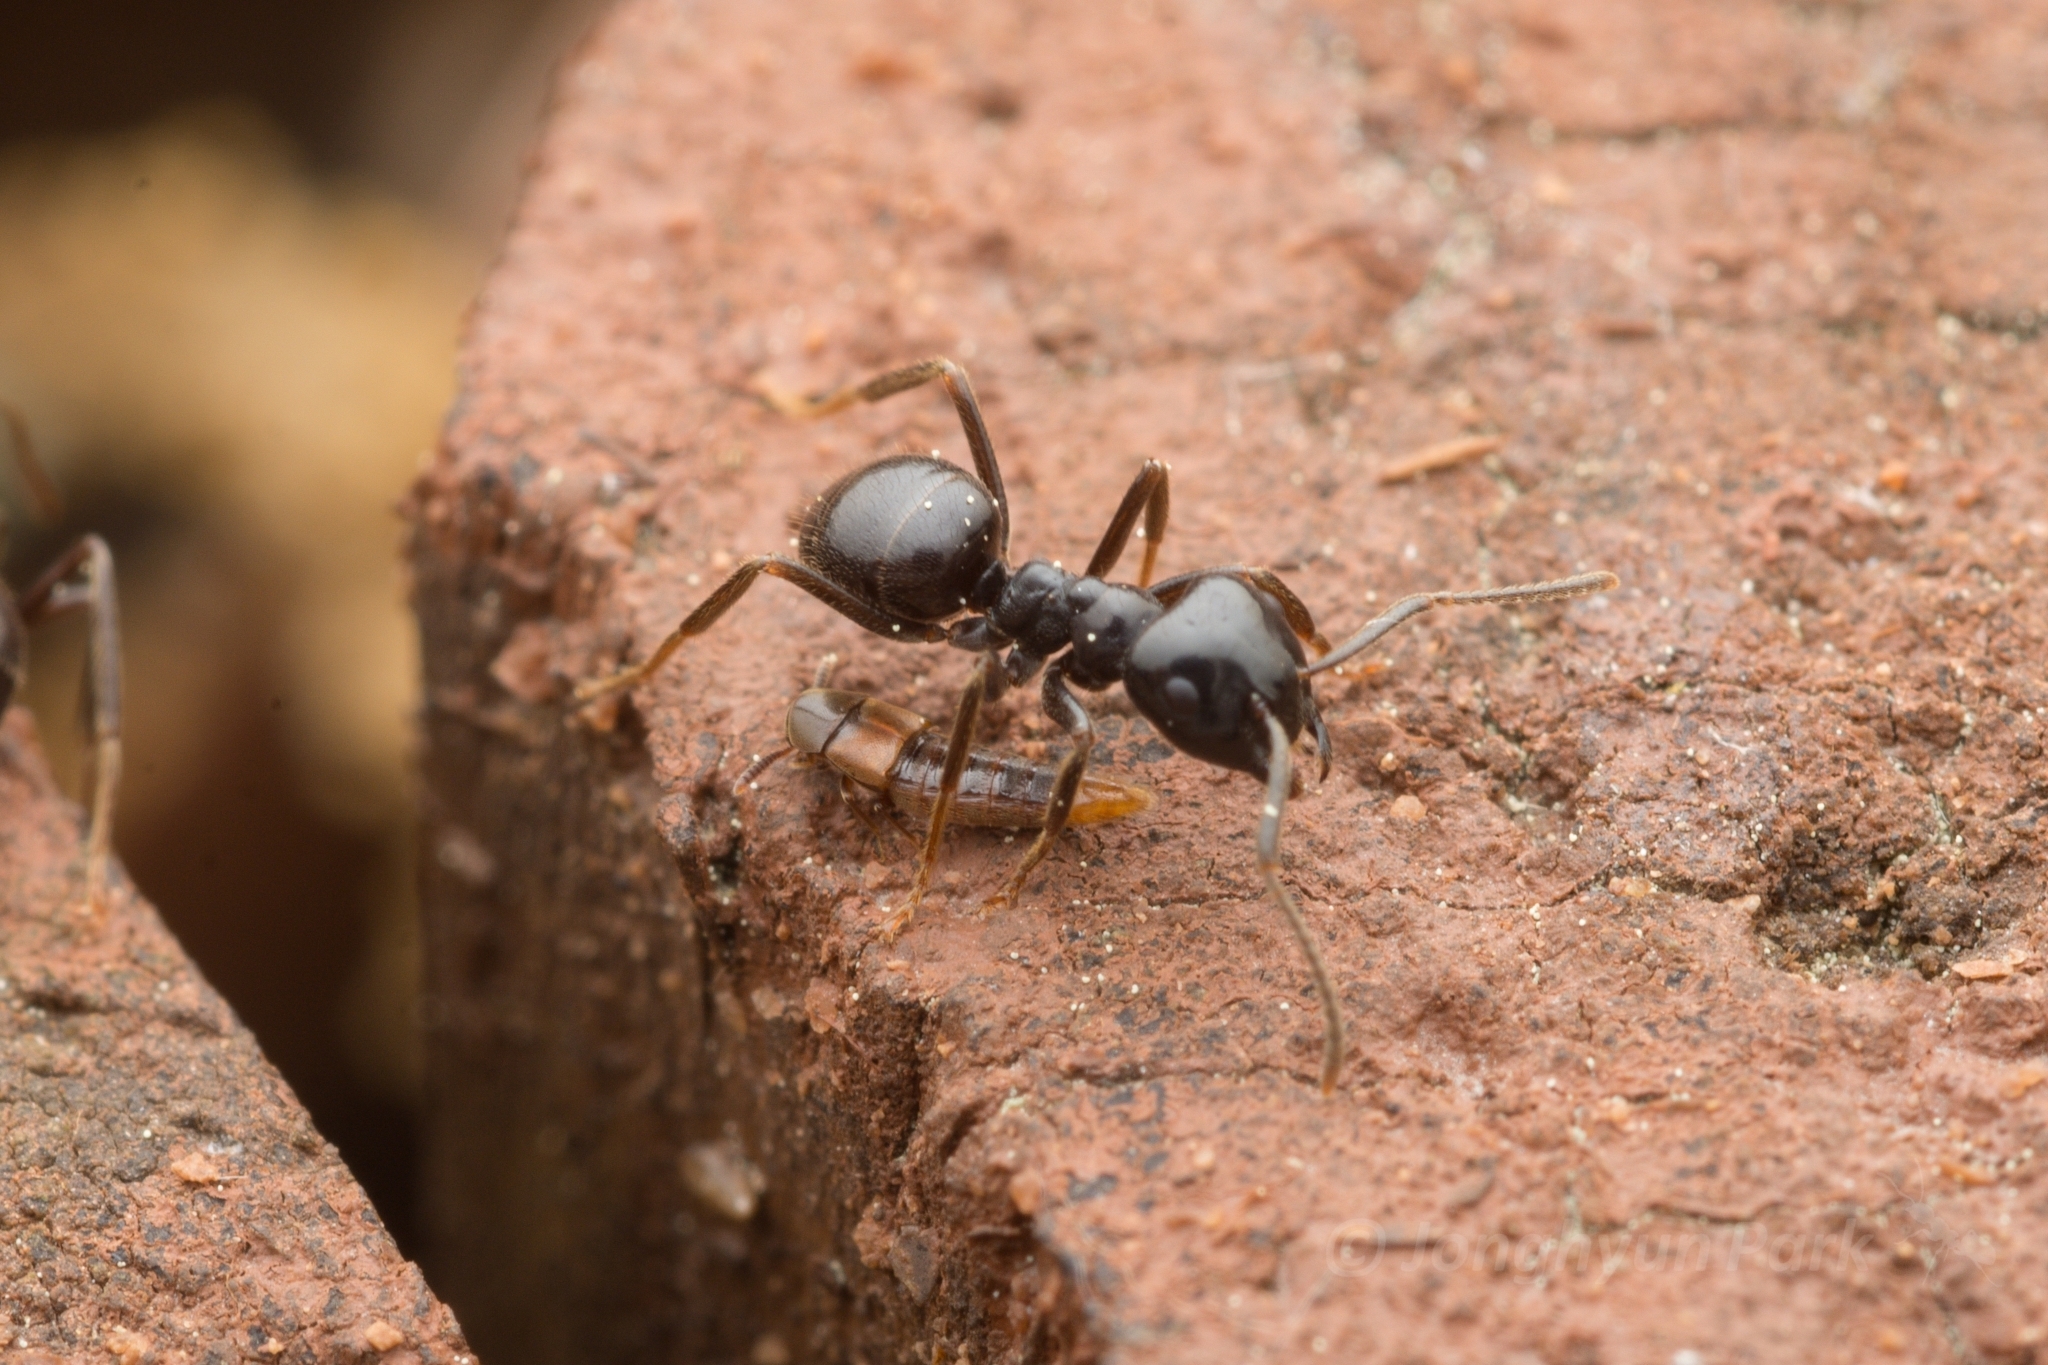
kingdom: Animalia
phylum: Arthropoda
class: Insecta
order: Hymenoptera
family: Formicidae
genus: Lasius
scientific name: Lasius spathepus
